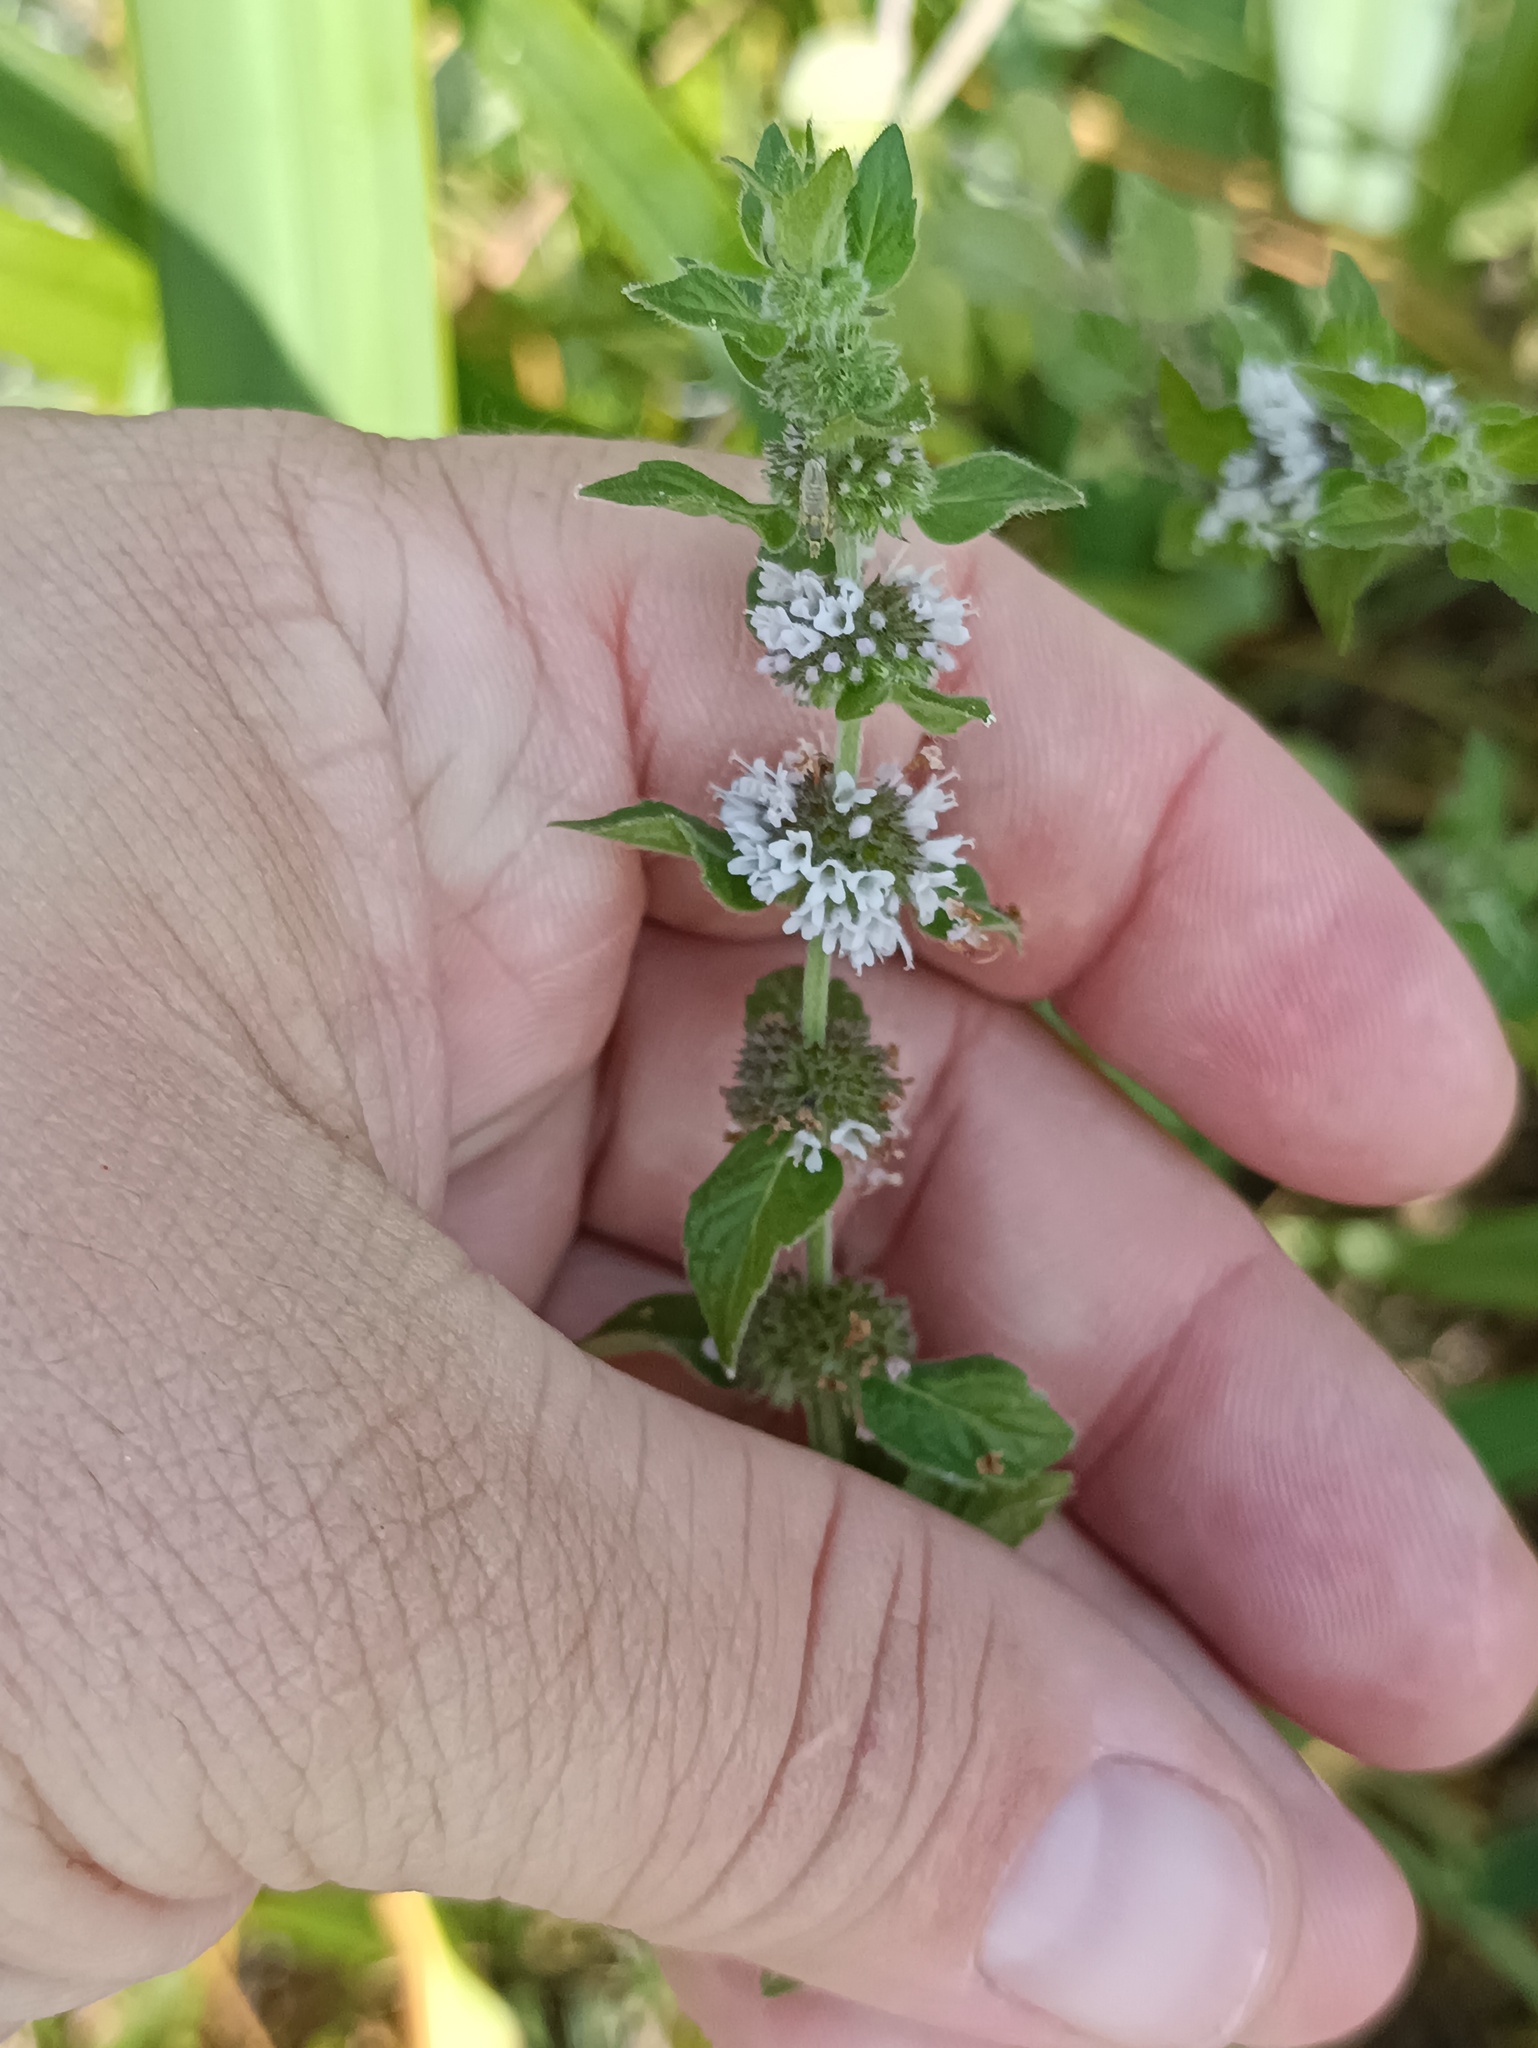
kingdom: Plantae
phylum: Tracheophyta
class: Magnoliopsida
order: Lamiales
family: Lamiaceae
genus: Mentha
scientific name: Mentha arvensis
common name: Corn mint
